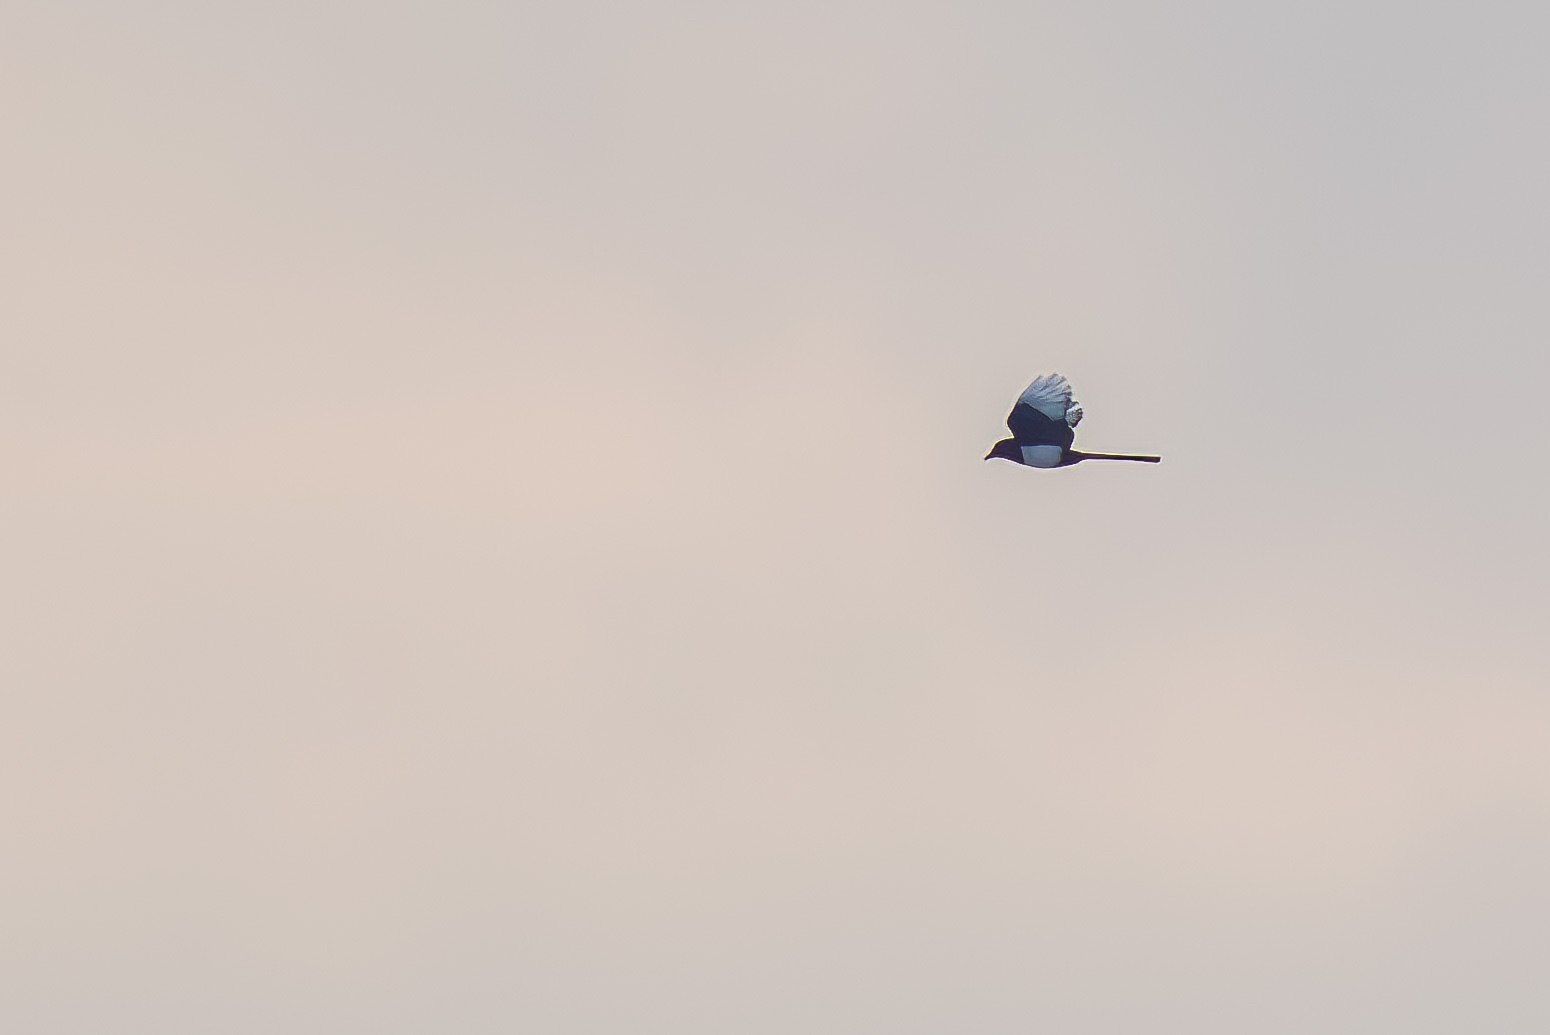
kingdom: Animalia
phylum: Chordata
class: Aves
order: Passeriformes
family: Corvidae
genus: Pica
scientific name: Pica pica
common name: Eurasian magpie
